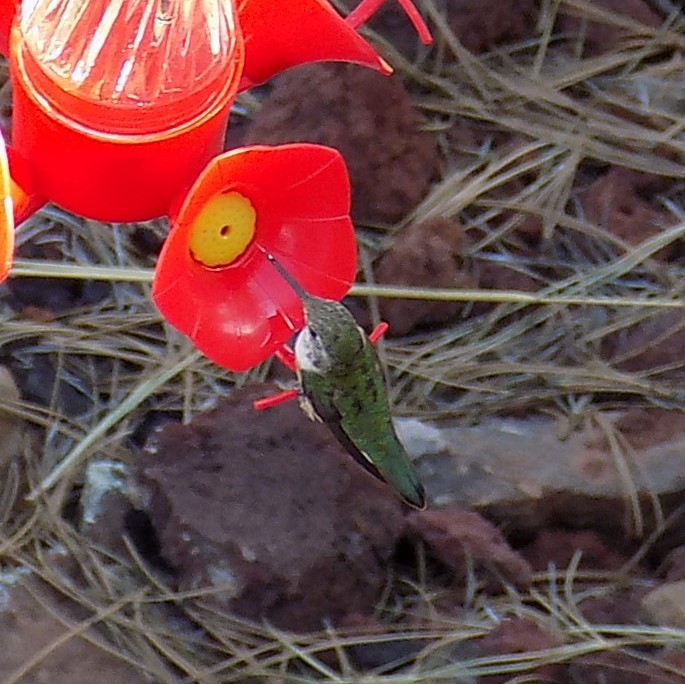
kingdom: Animalia
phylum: Chordata
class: Aves
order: Apodiformes
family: Trochilidae
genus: Selasphorus
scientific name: Selasphorus platycercus
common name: Broad-tailed hummingbird
